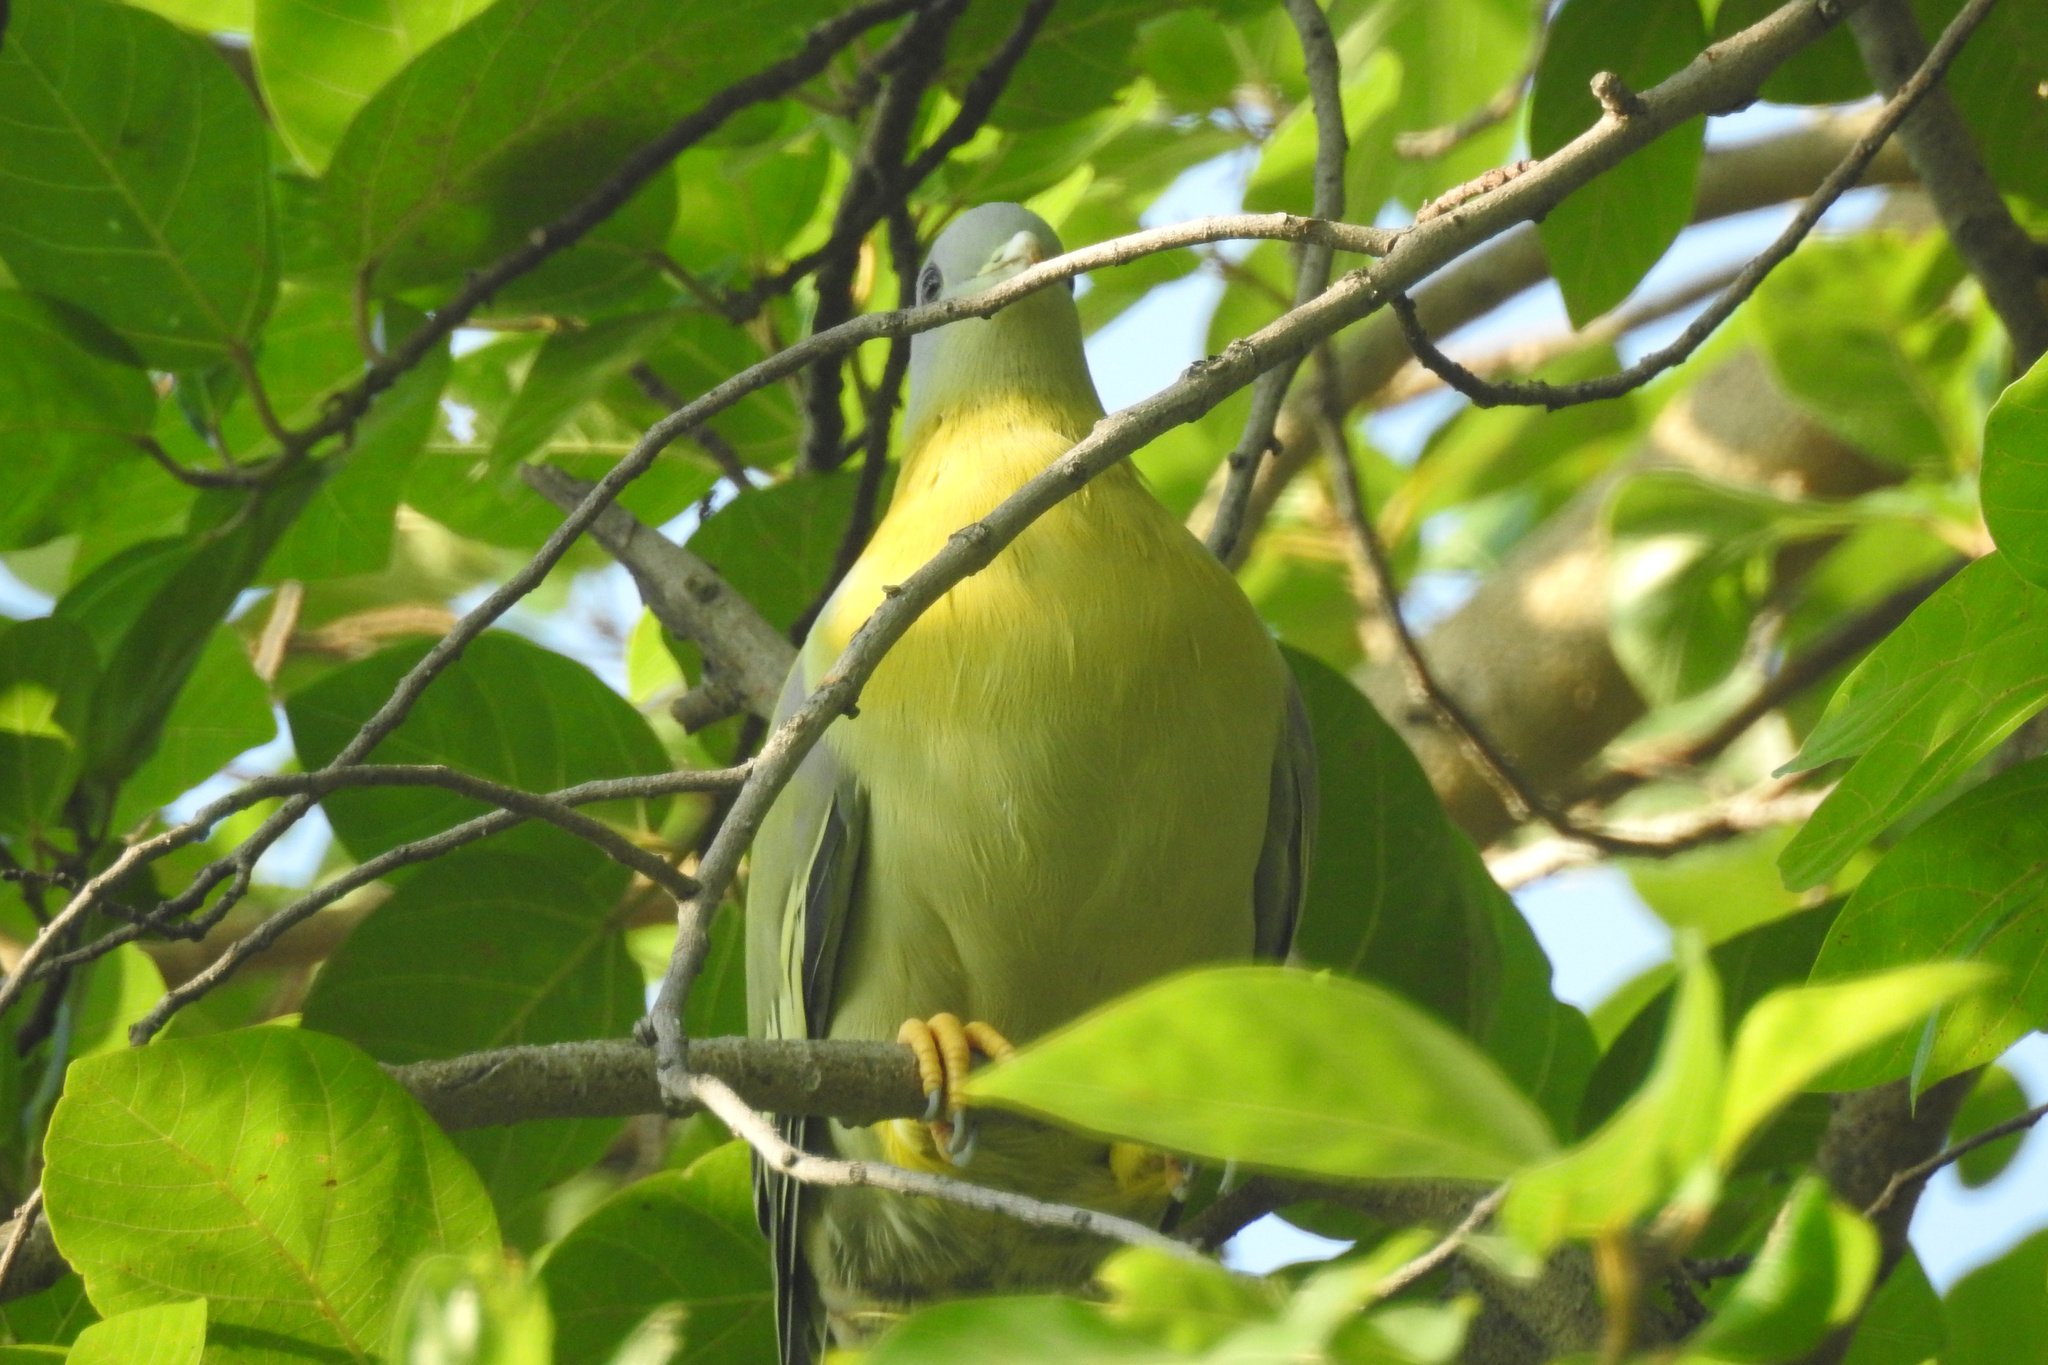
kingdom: Animalia
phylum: Chordata
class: Aves
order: Columbiformes
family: Columbidae
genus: Treron
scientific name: Treron phoenicopterus
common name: Yellow-footed green pigeon
